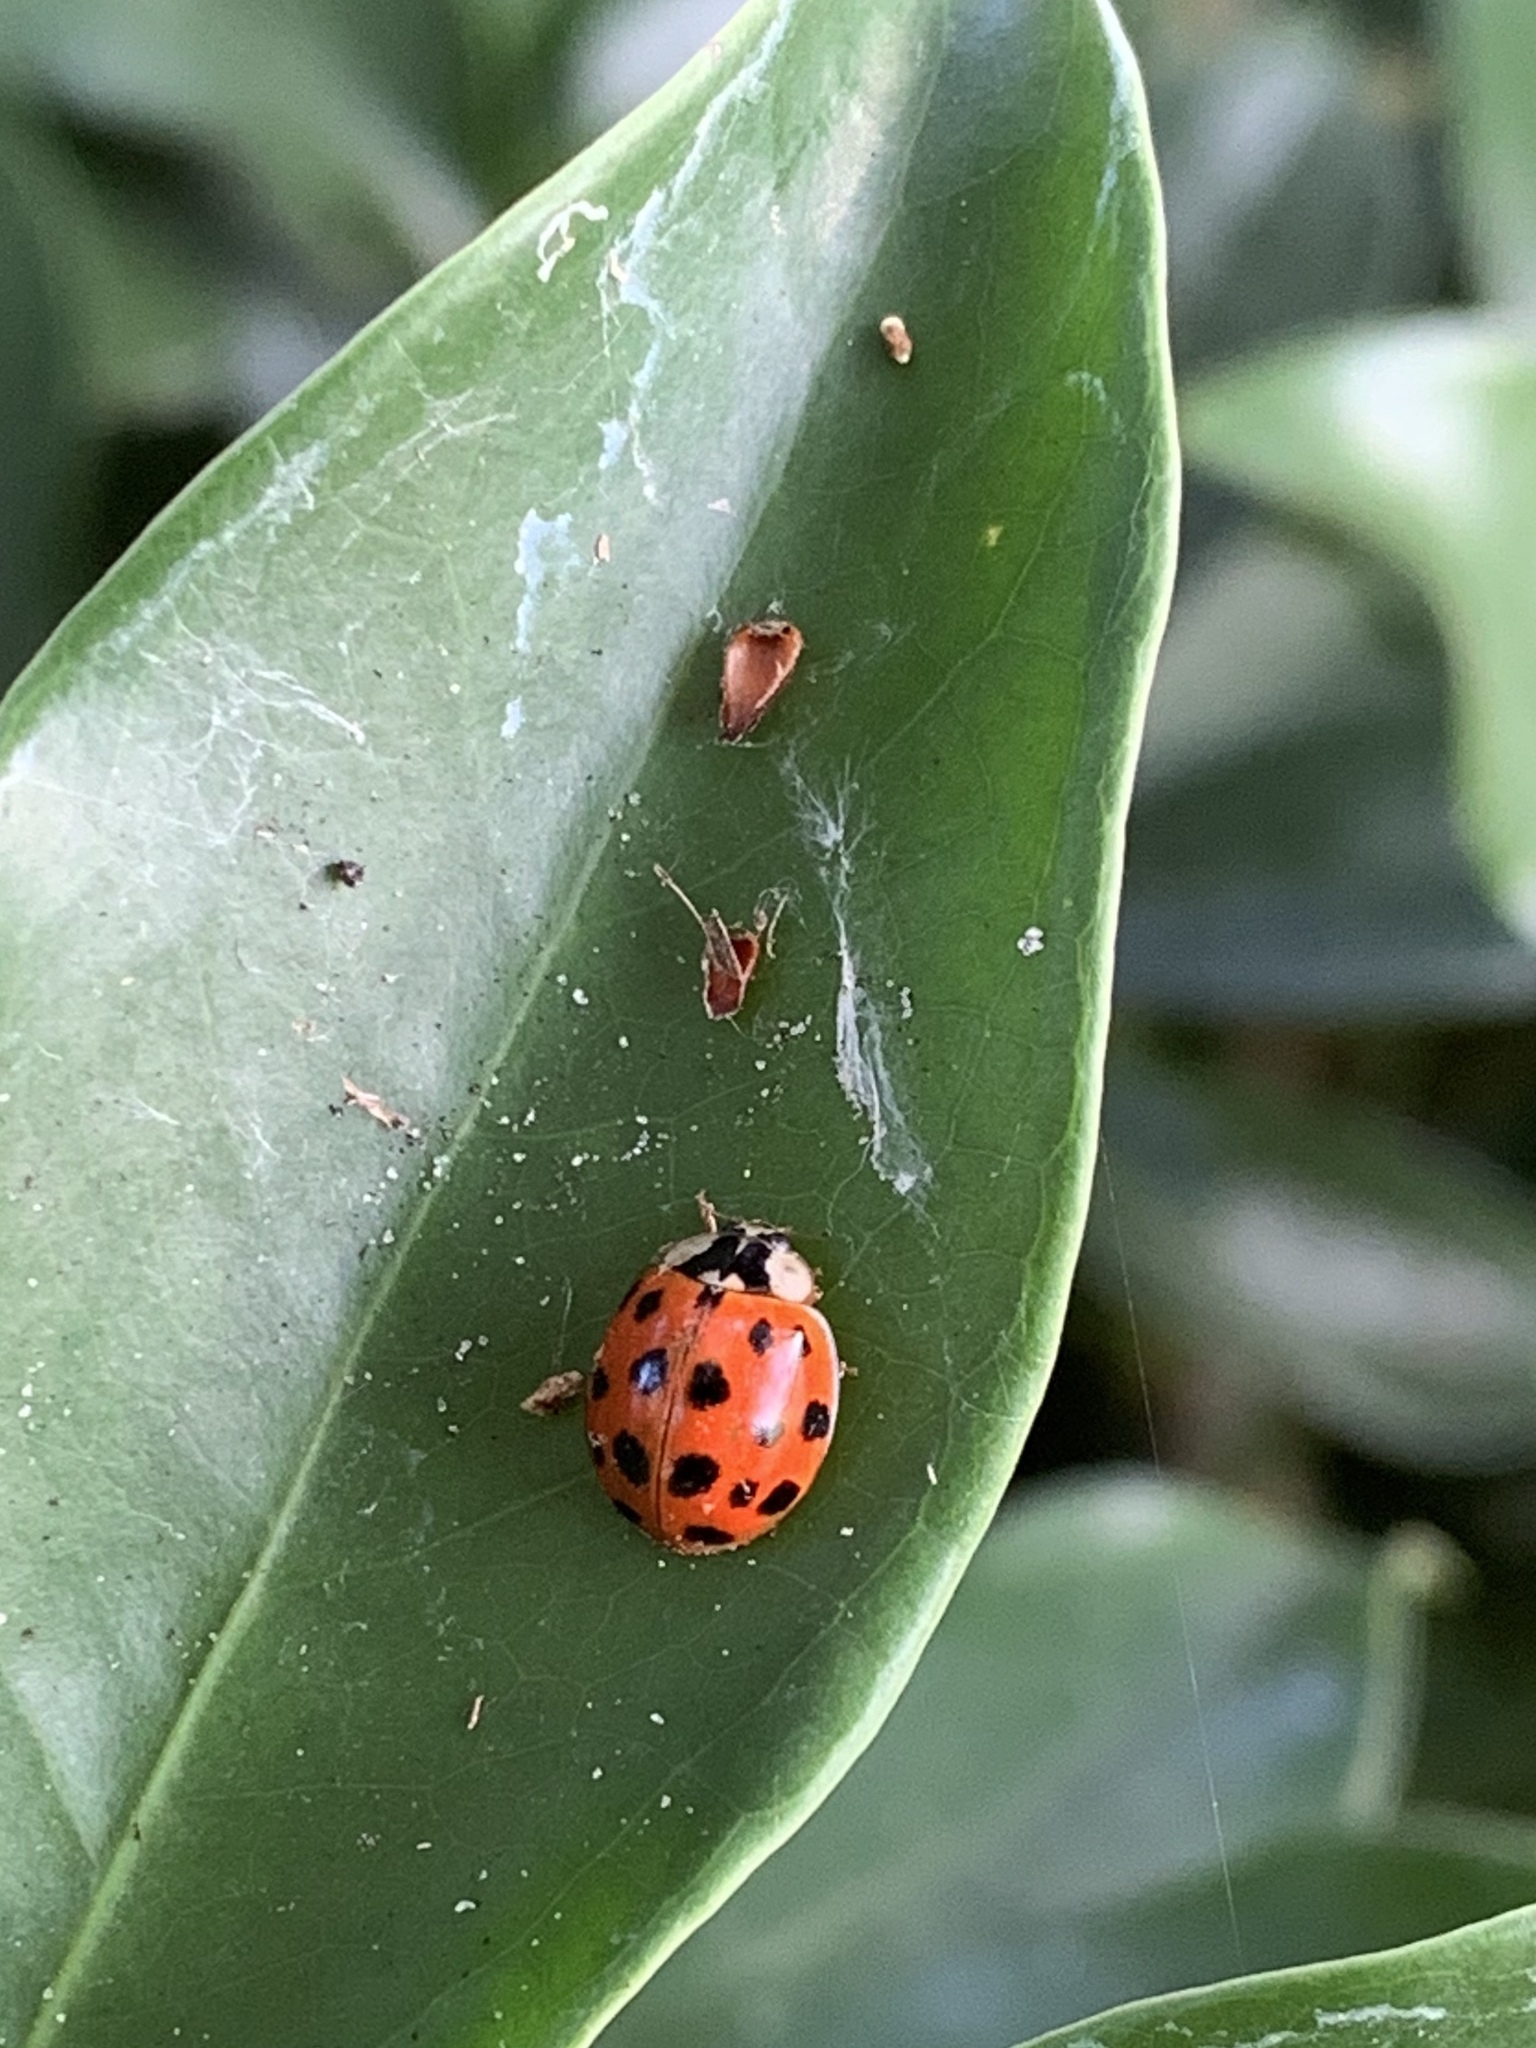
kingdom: Animalia
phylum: Arthropoda
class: Insecta
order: Coleoptera
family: Coccinellidae
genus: Harmonia
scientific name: Harmonia axyridis
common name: Harlequin ladybird
